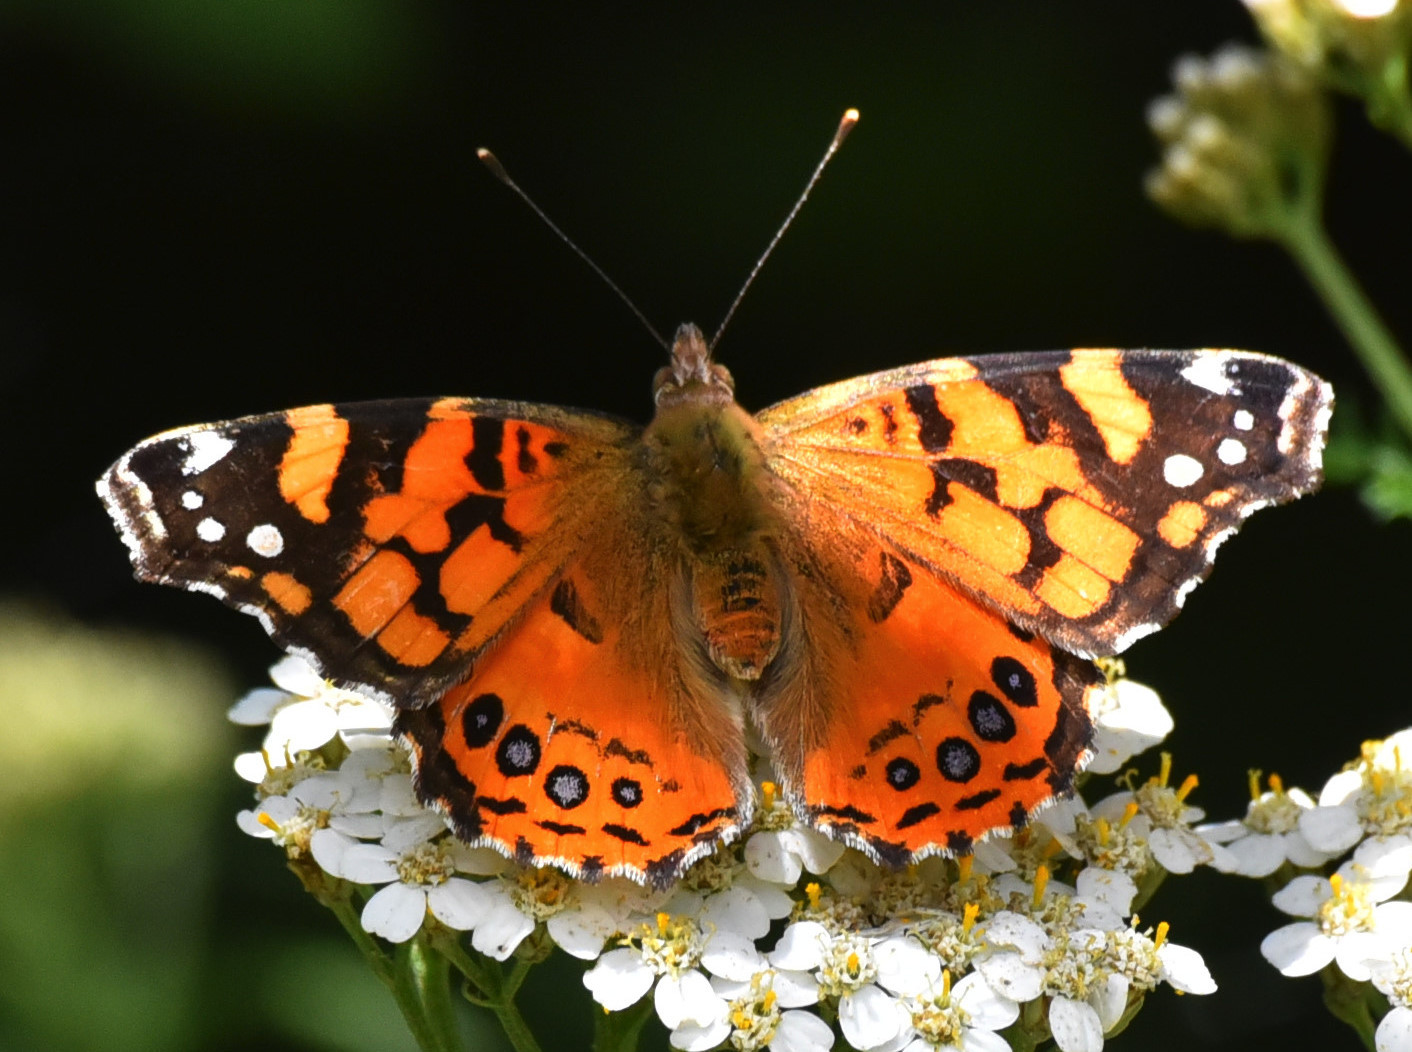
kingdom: Animalia
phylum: Arthropoda
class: Insecta
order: Lepidoptera
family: Nymphalidae
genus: Vanessa
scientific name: Vanessa annabella
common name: West coast lady
